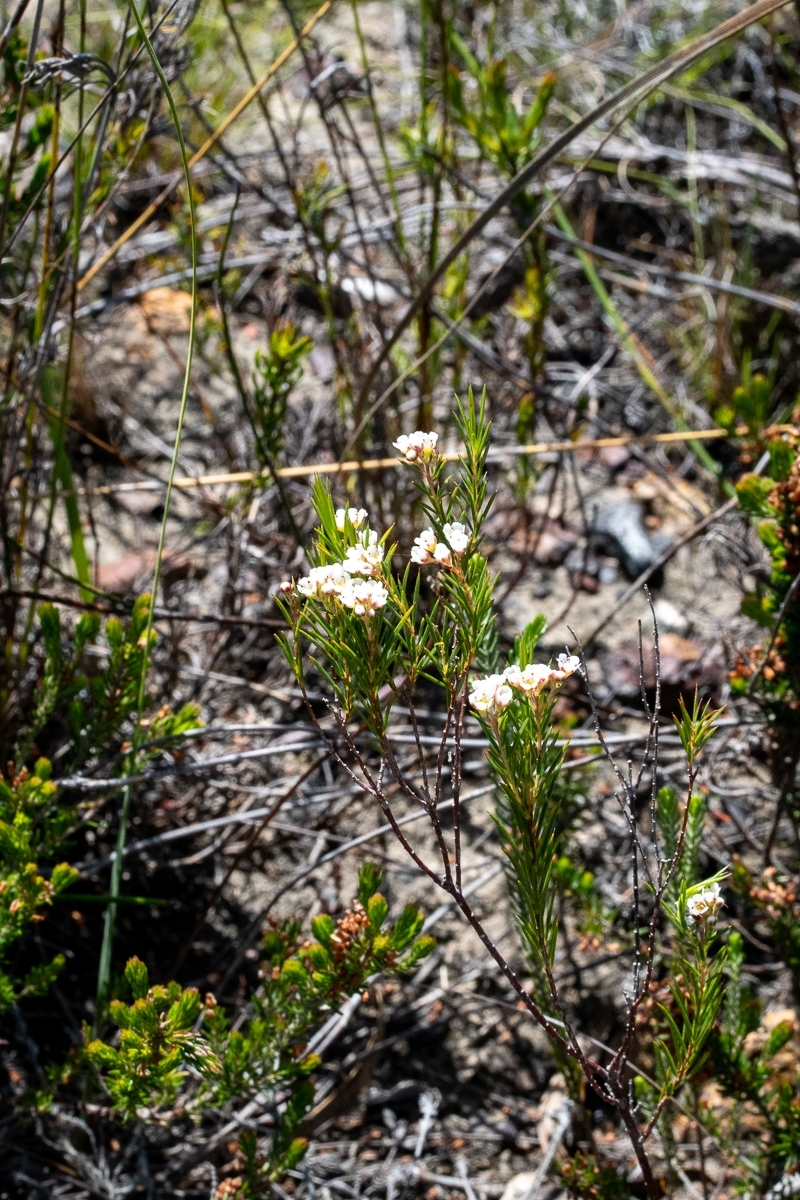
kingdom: Plantae
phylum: Tracheophyta
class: Magnoliopsida
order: Sapindales
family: Rutaceae
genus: Diosma
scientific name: Diosma hirsuta
